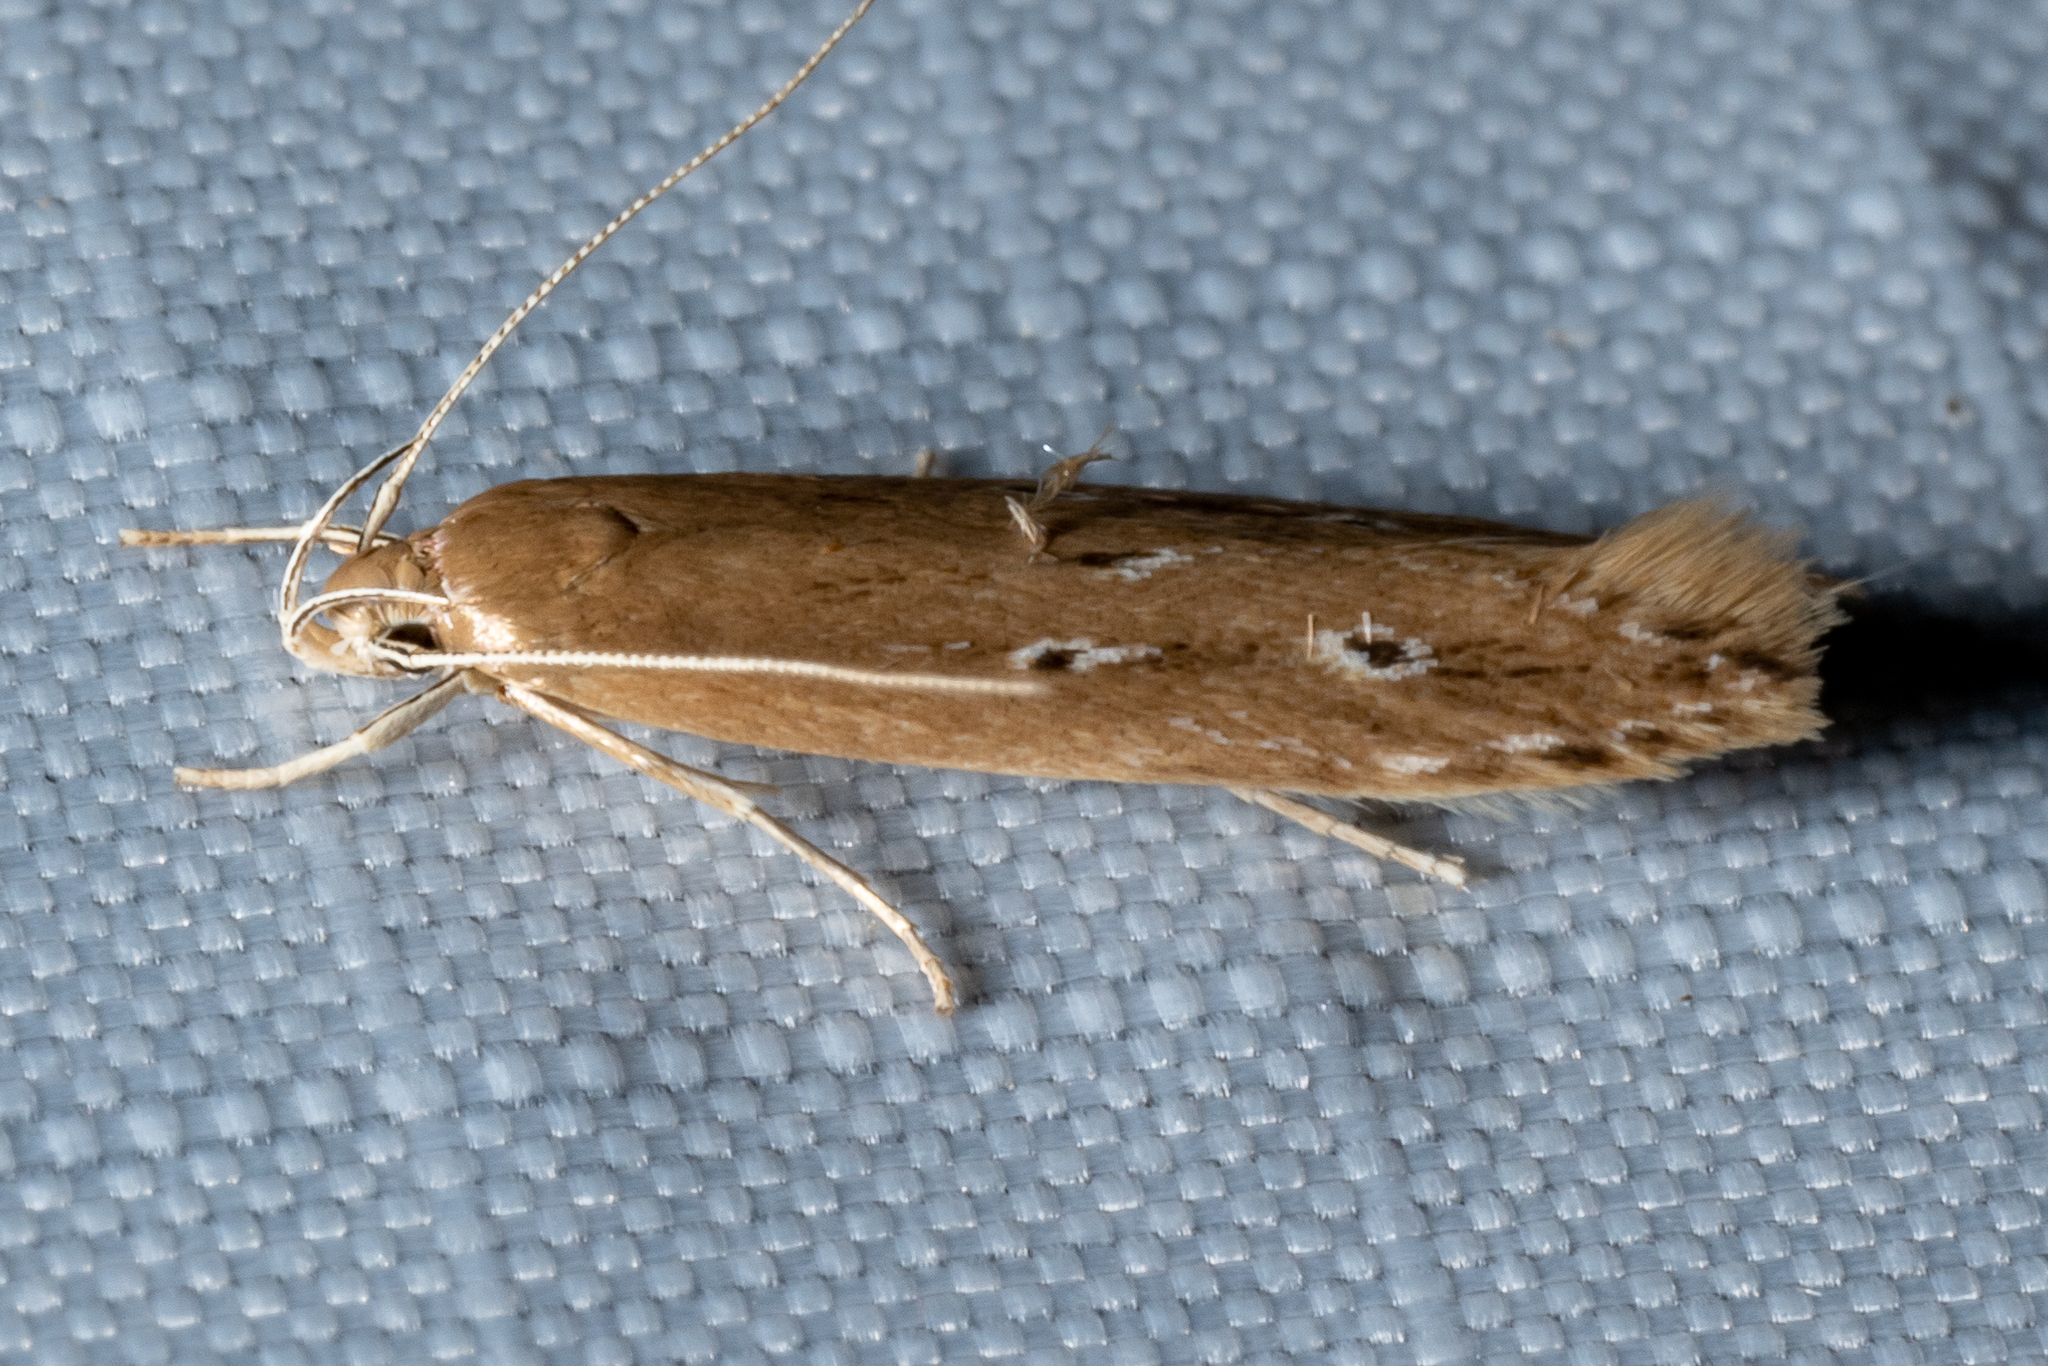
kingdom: Animalia
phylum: Arthropoda
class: Insecta
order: Lepidoptera
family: Cosmopterigidae
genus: Limnaecia
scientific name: Limnaecia phragmitella
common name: Bulrush cosmet
